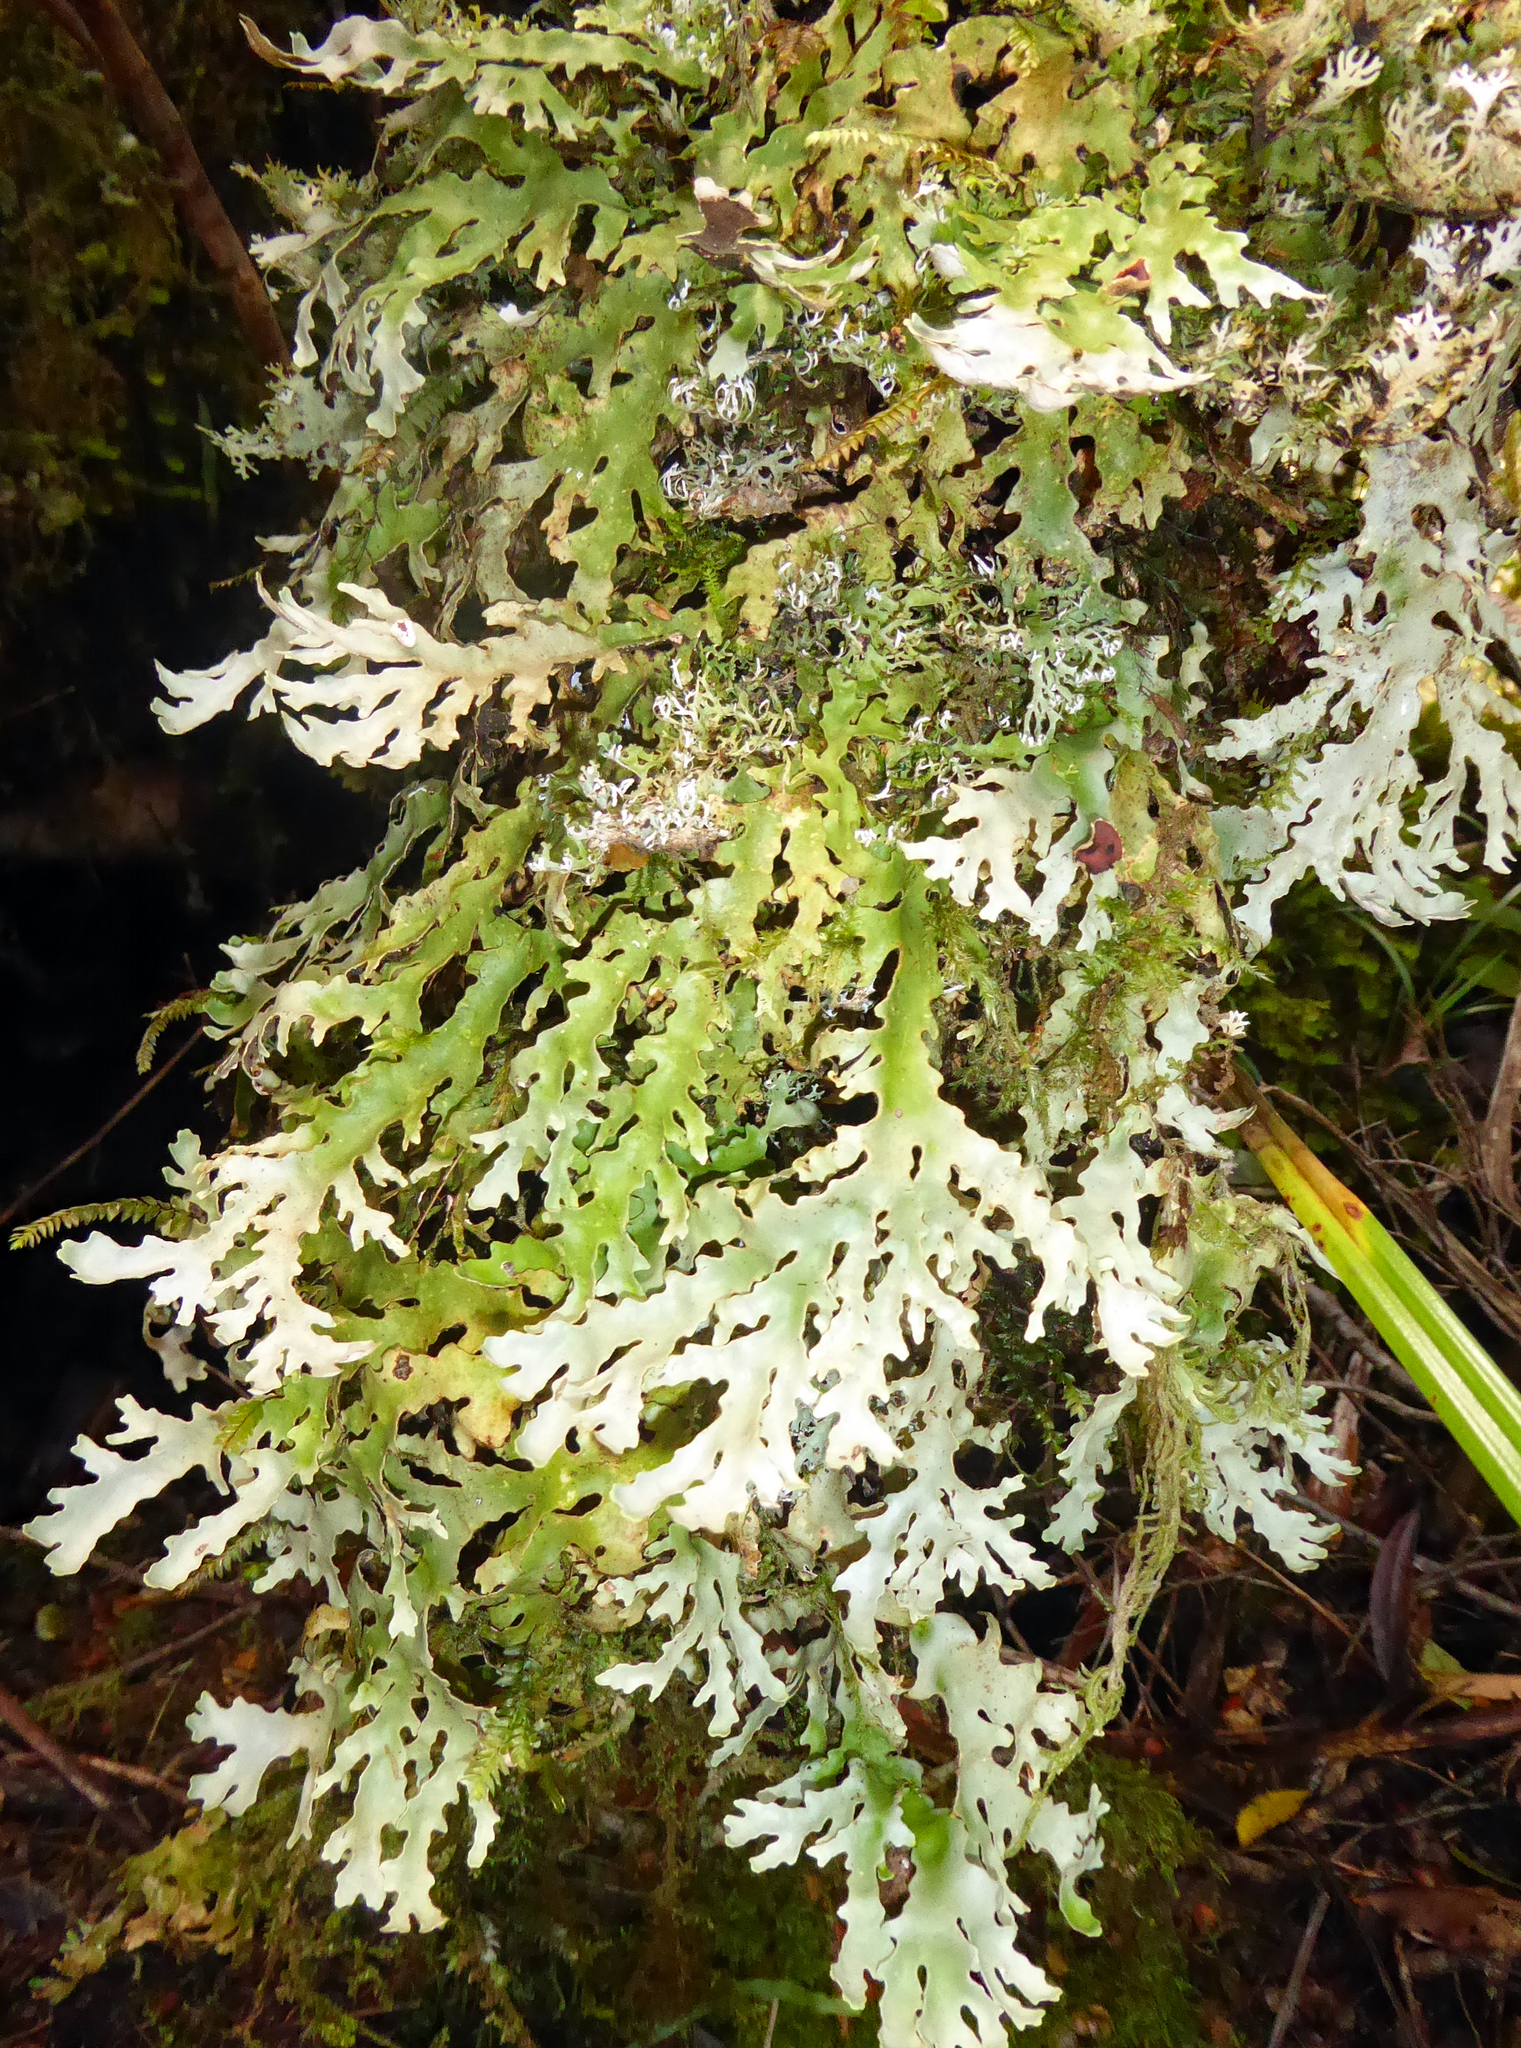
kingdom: Fungi
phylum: Ascomycota
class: Lecanoromycetes
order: Peltigerales
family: Lobariaceae
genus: Pseudocyphellaria
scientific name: Pseudocyphellaria homeophylla
